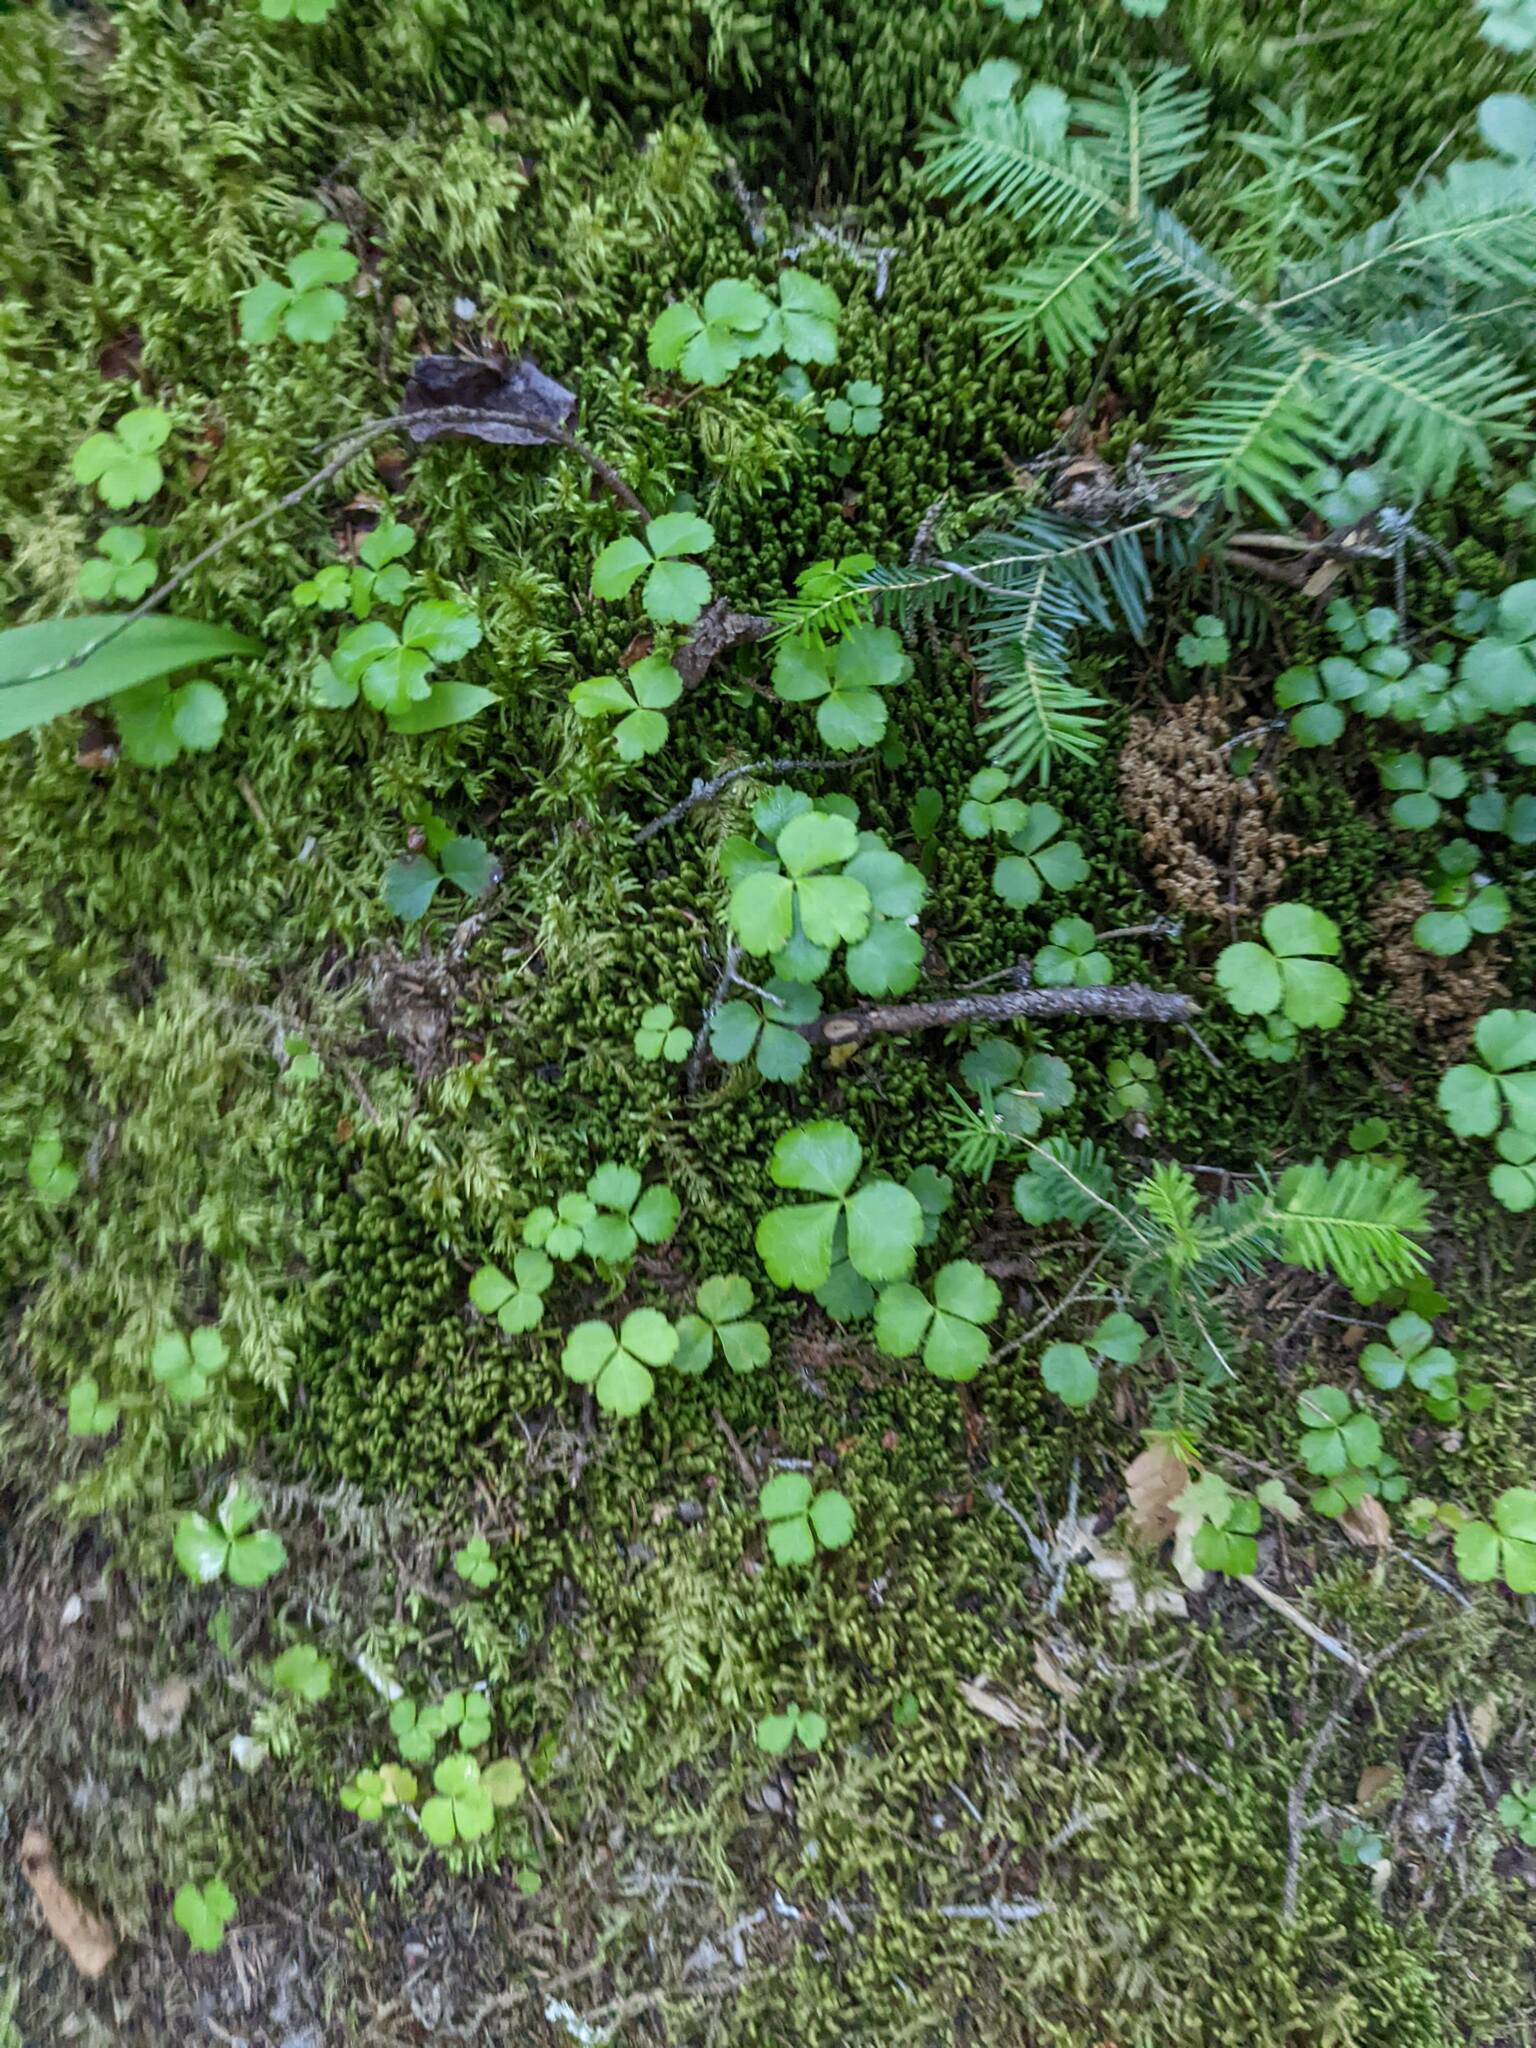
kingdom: Plantae
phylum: Tracheophyta
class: Magnoliopsida
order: Ranunculales
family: Ranunculaceae
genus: Coptis
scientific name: Coptis trifolia
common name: Canker-root
